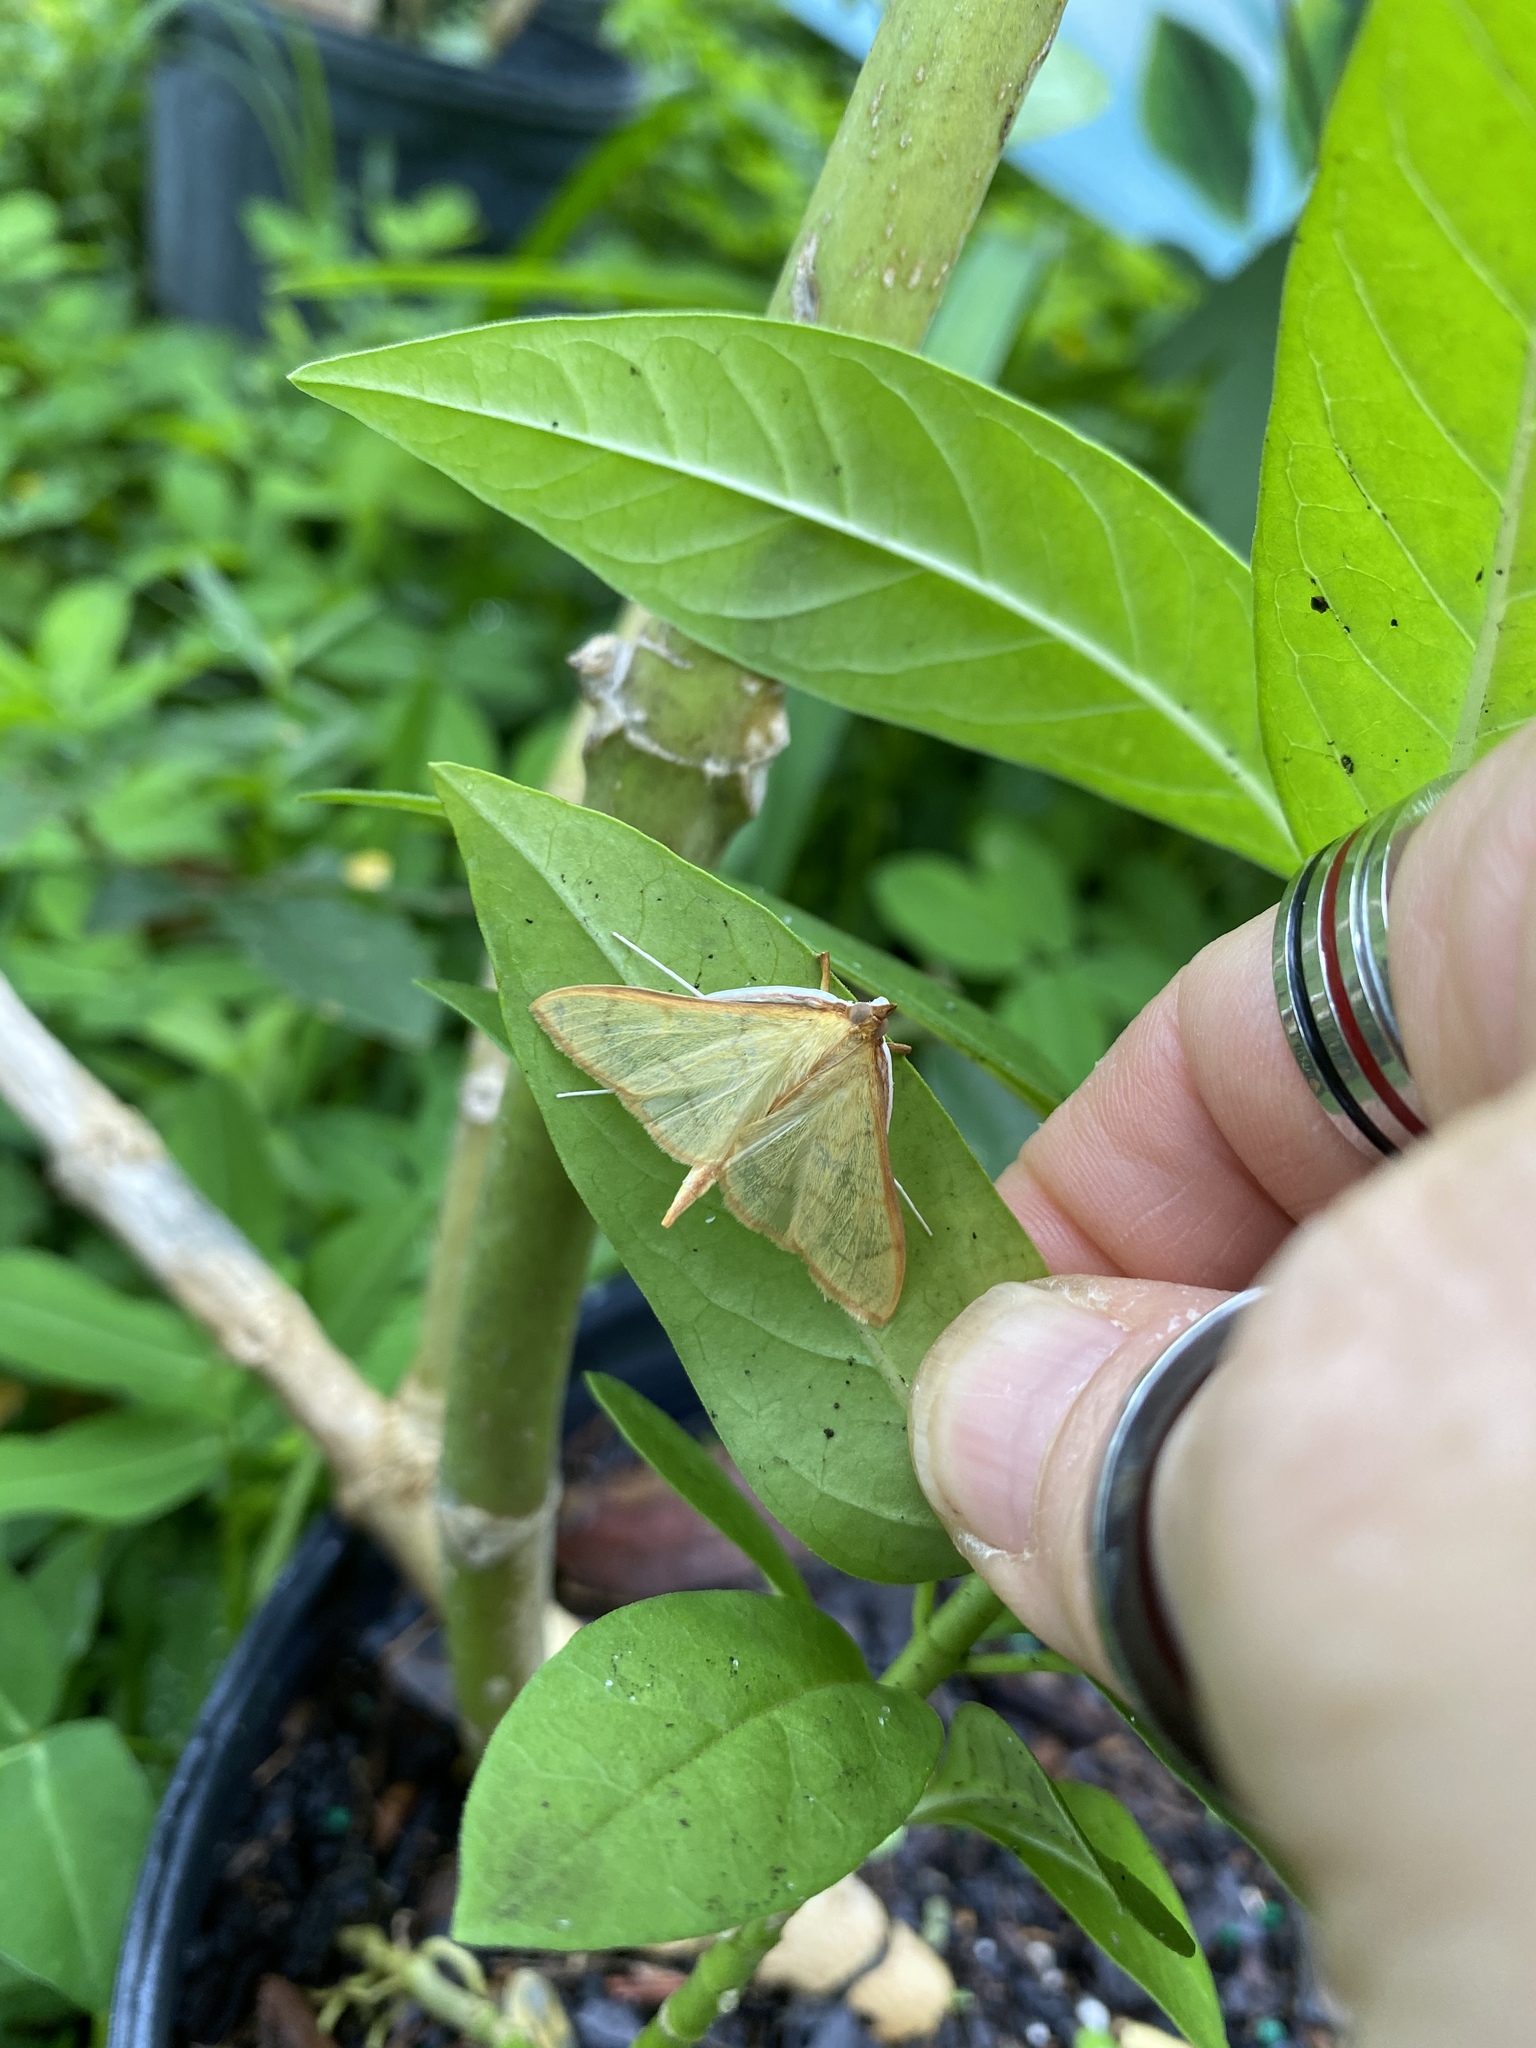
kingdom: Animalia
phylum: Arthropoda
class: Insecta
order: Lepidoptera
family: Crambidae
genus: Epicorsia
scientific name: Epicorsia oedipodalis
